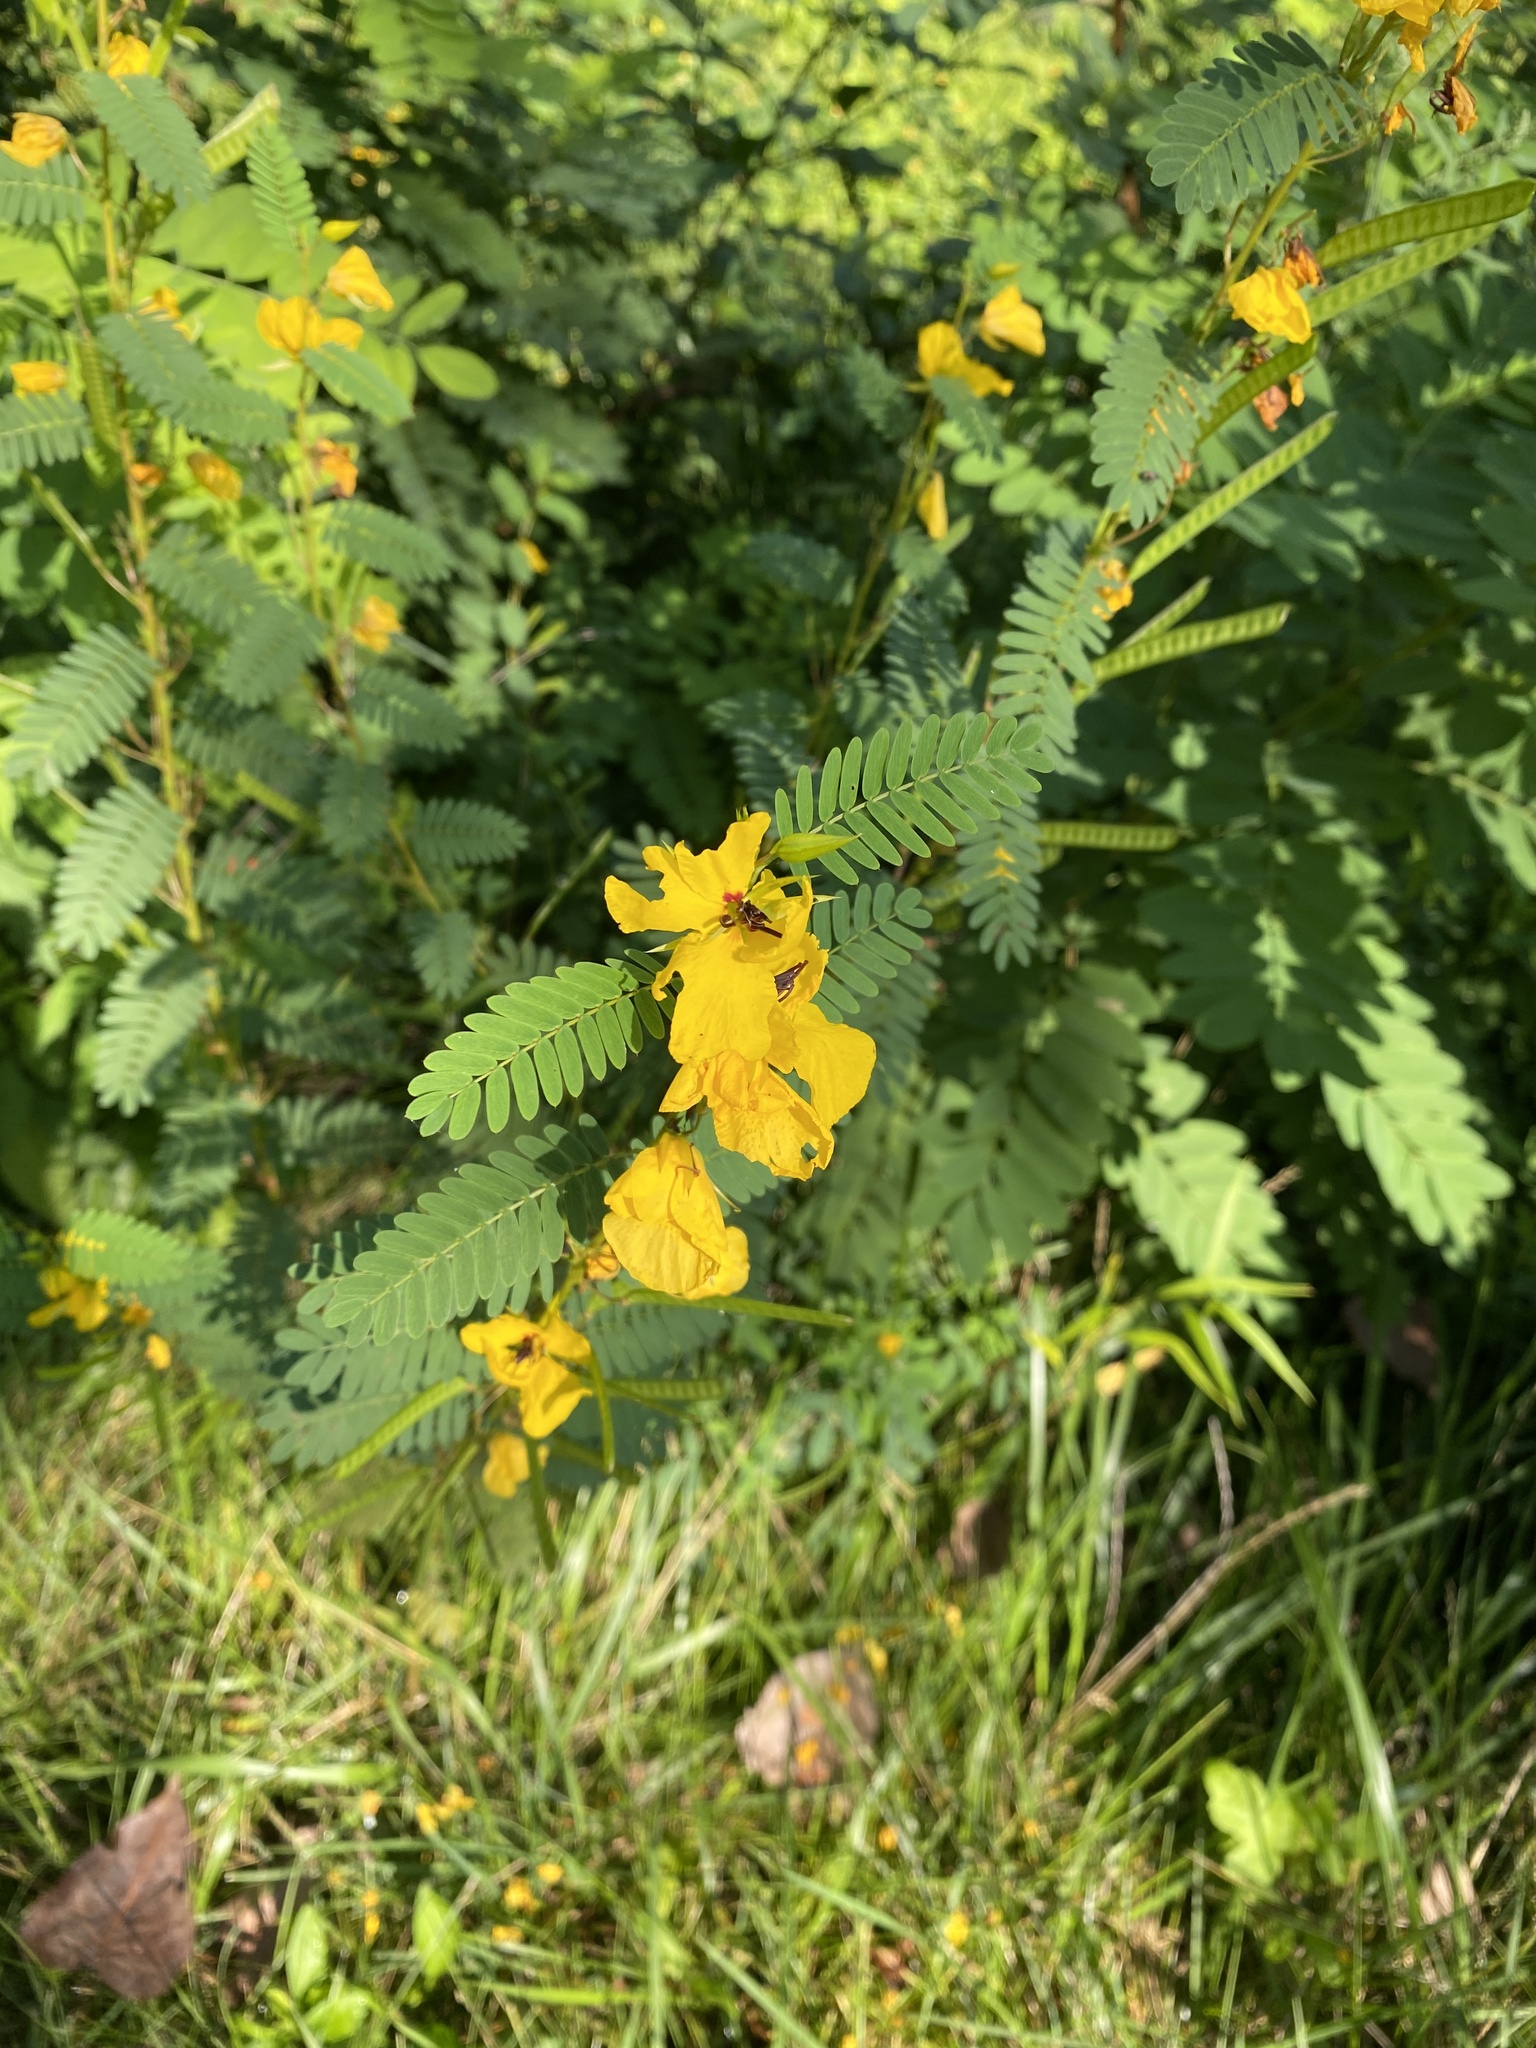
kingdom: Plantae
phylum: Tracheophyta
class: Magnoliopsida
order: Fabales
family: Fabaceae
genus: Chamaecrista
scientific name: Chamaecrista fasciculata
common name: Golden cassia
